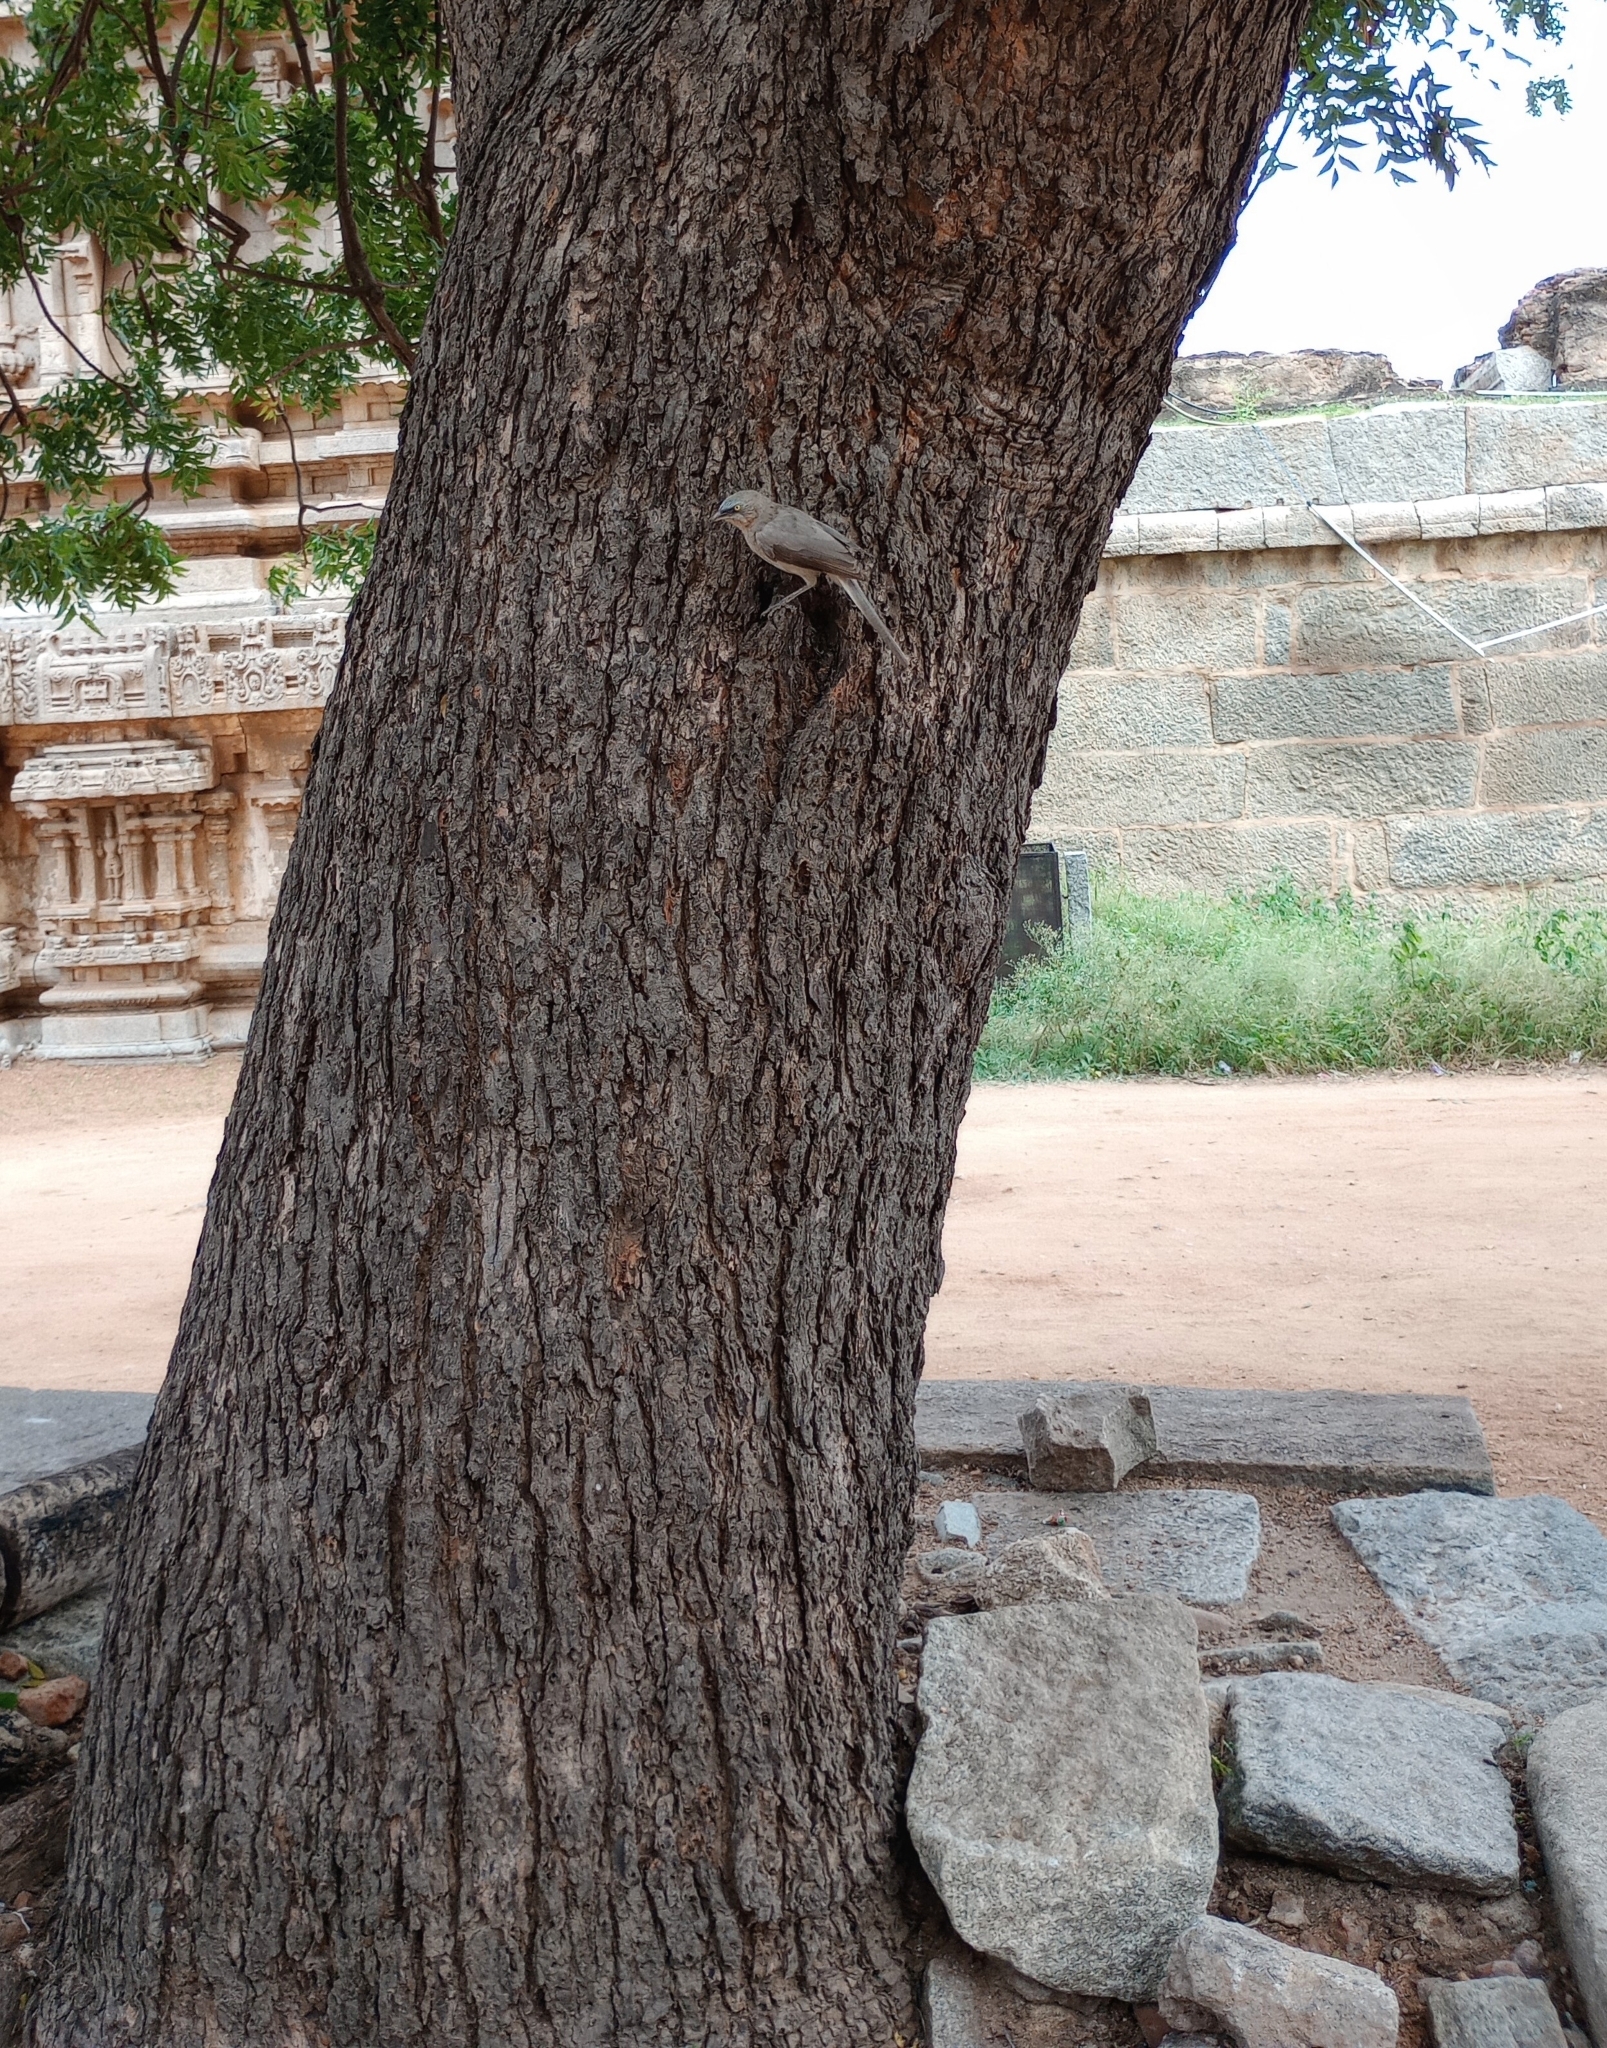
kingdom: Animalia
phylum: Chordata
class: Aves
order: Passeriformes
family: Leiothrichidae
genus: Turdoides
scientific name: Turdoides malcolmi
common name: Large grey babbler
